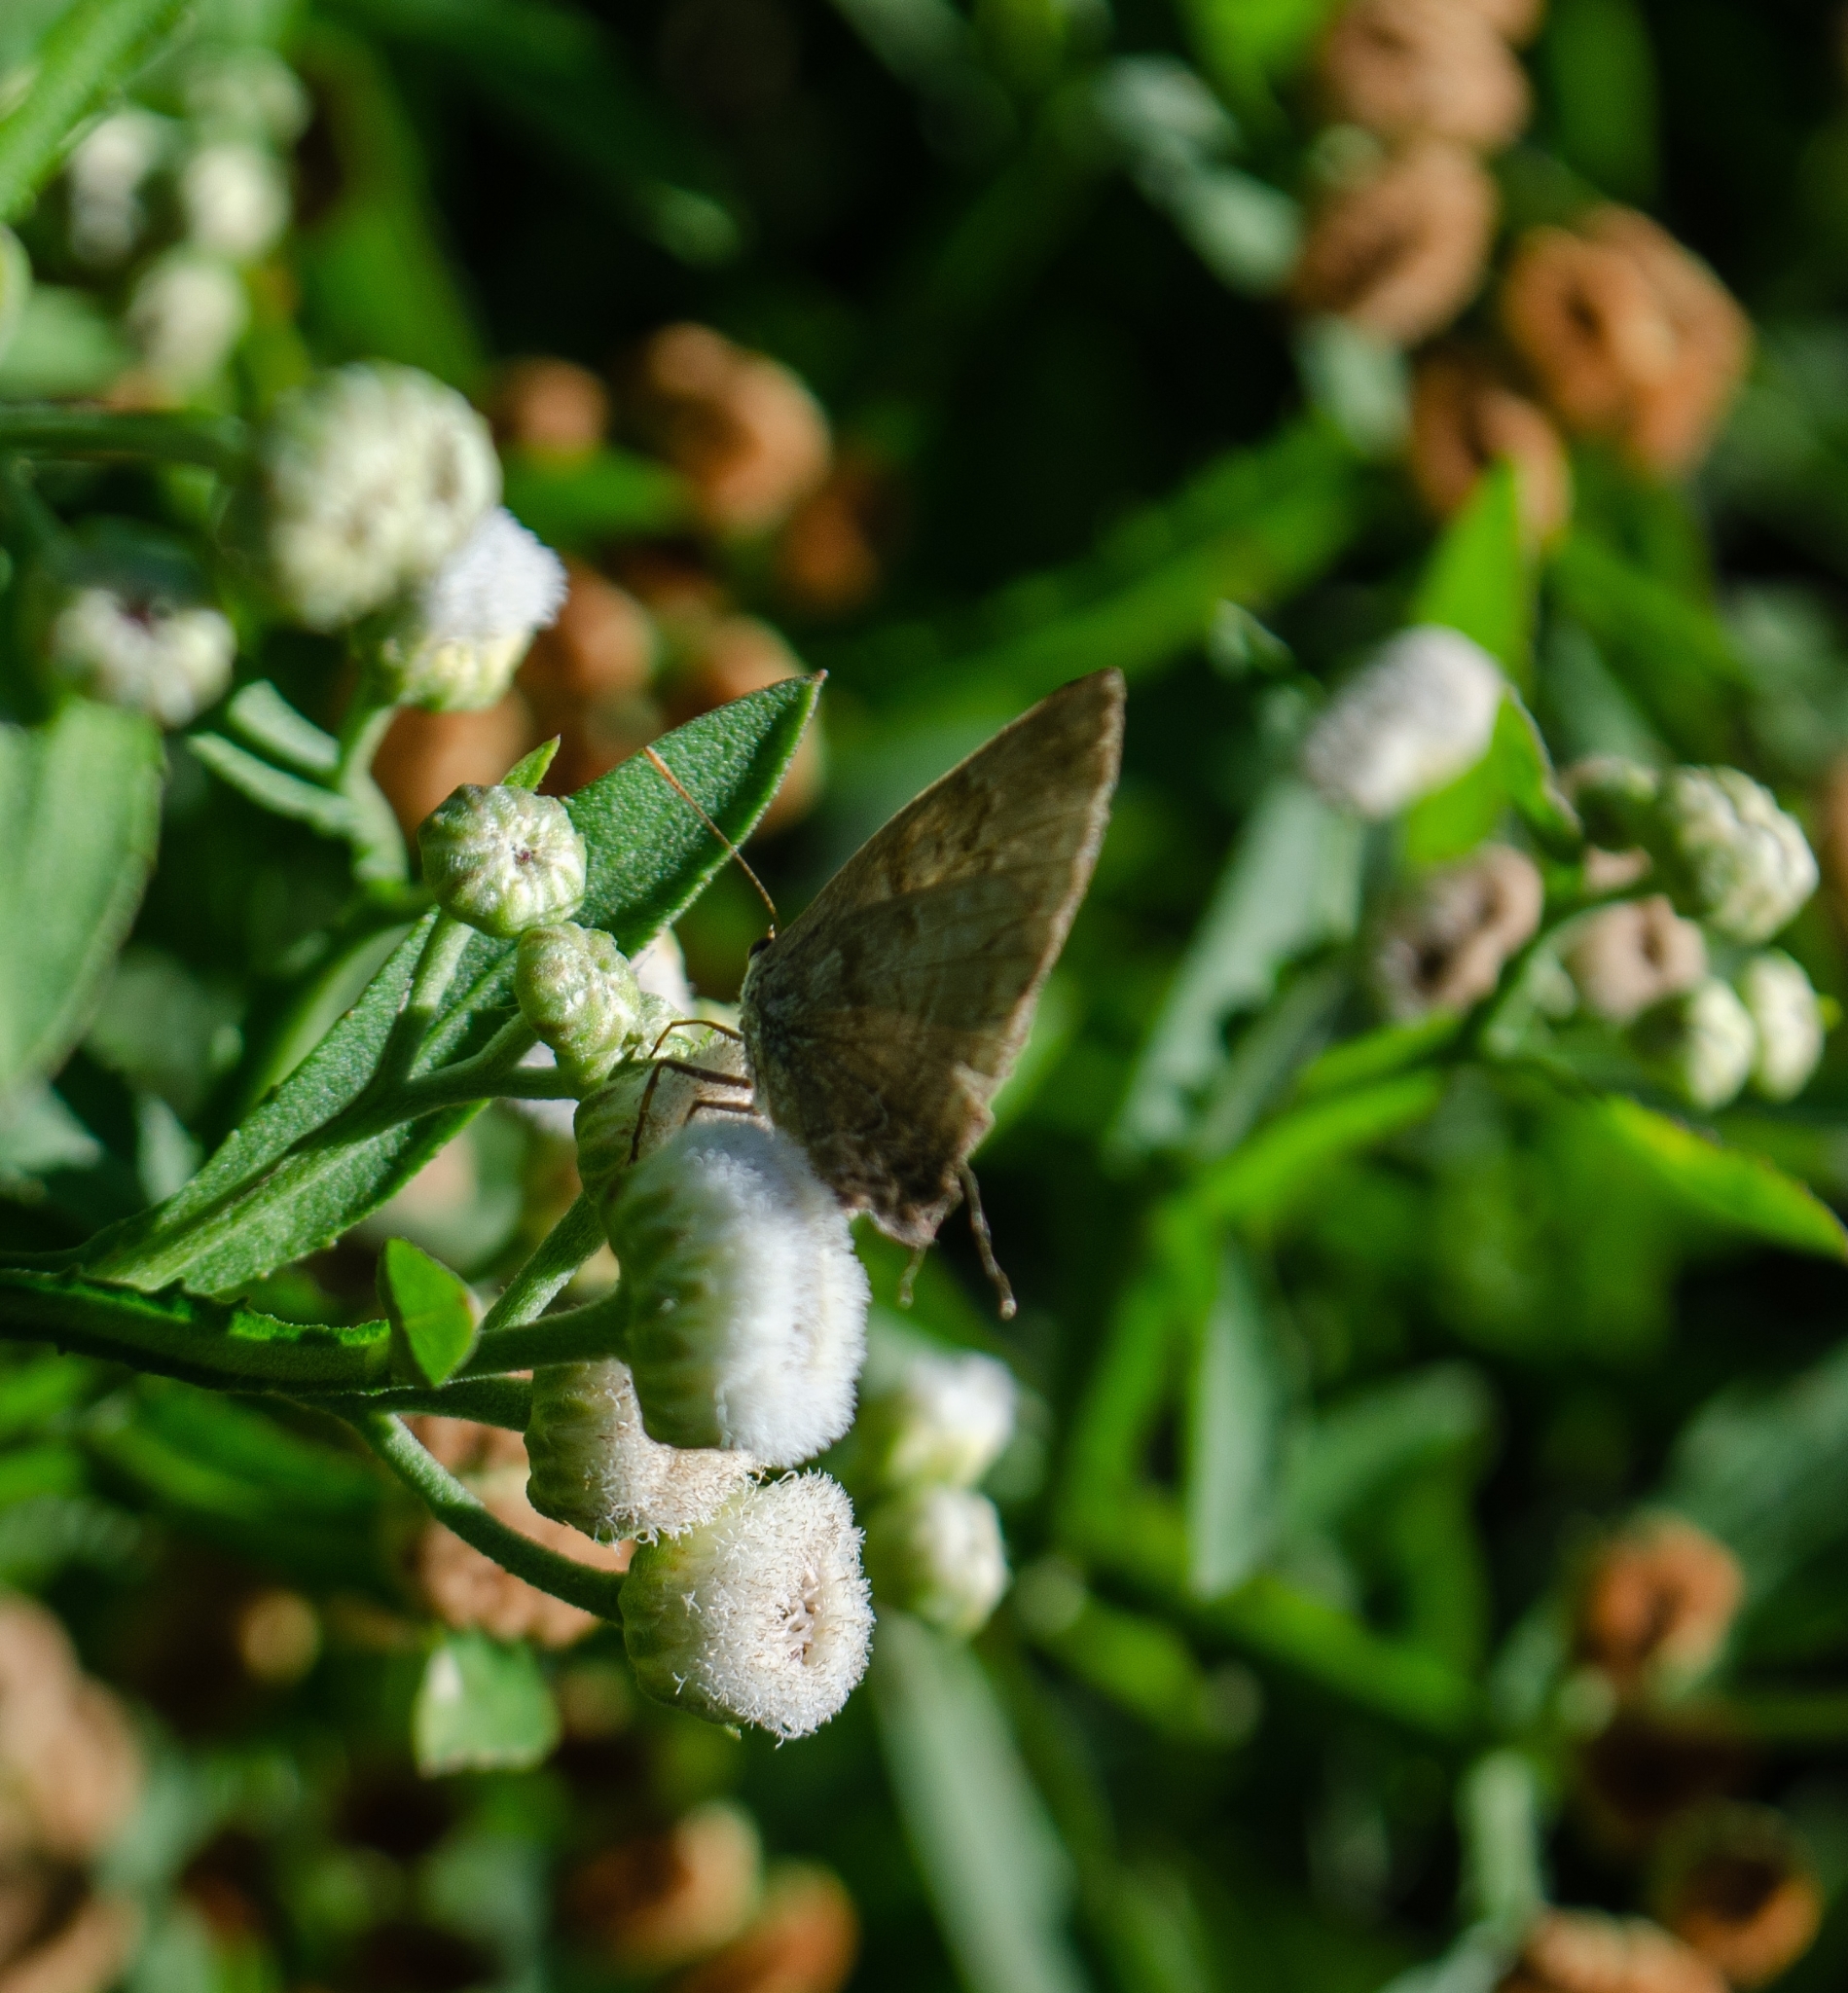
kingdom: Animalia
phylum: Arthropoda
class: Insecta
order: Lepidoptera
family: Lycaenidae
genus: Rekoa
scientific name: Rekoa palegon
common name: Gold-bordered hairstreak
